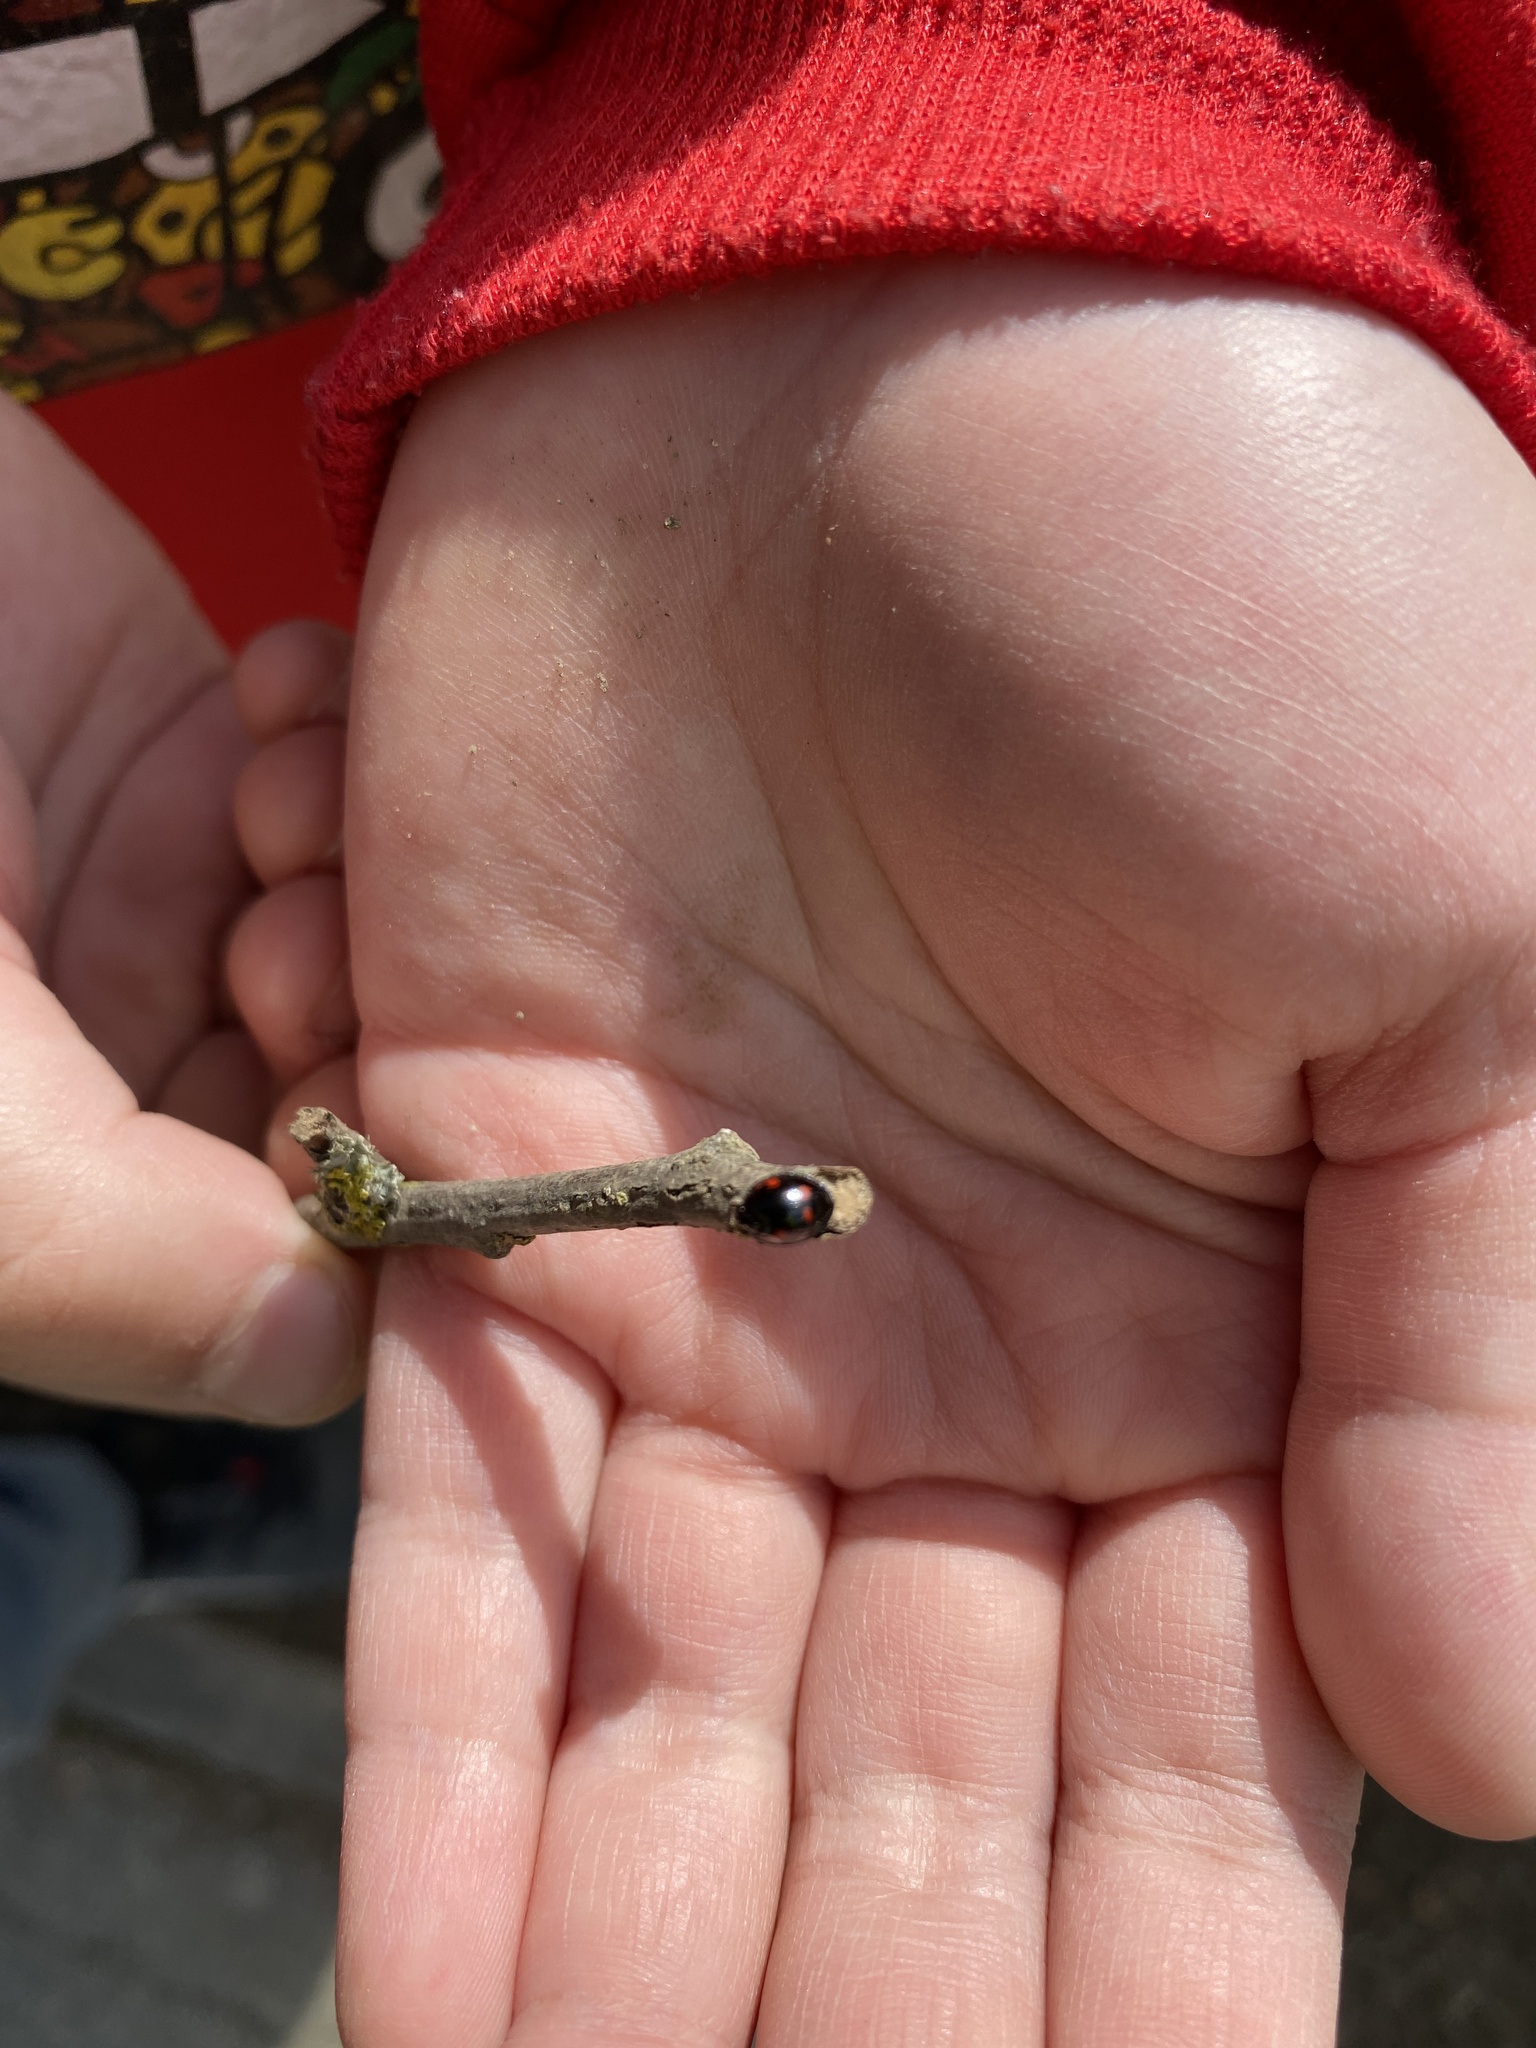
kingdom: Animalia
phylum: Arthropoda
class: Insecta
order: Coleoptera
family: Coccinellidae
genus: Brumus
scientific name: Brumus quadripustulatus
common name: Ladybird beetle
